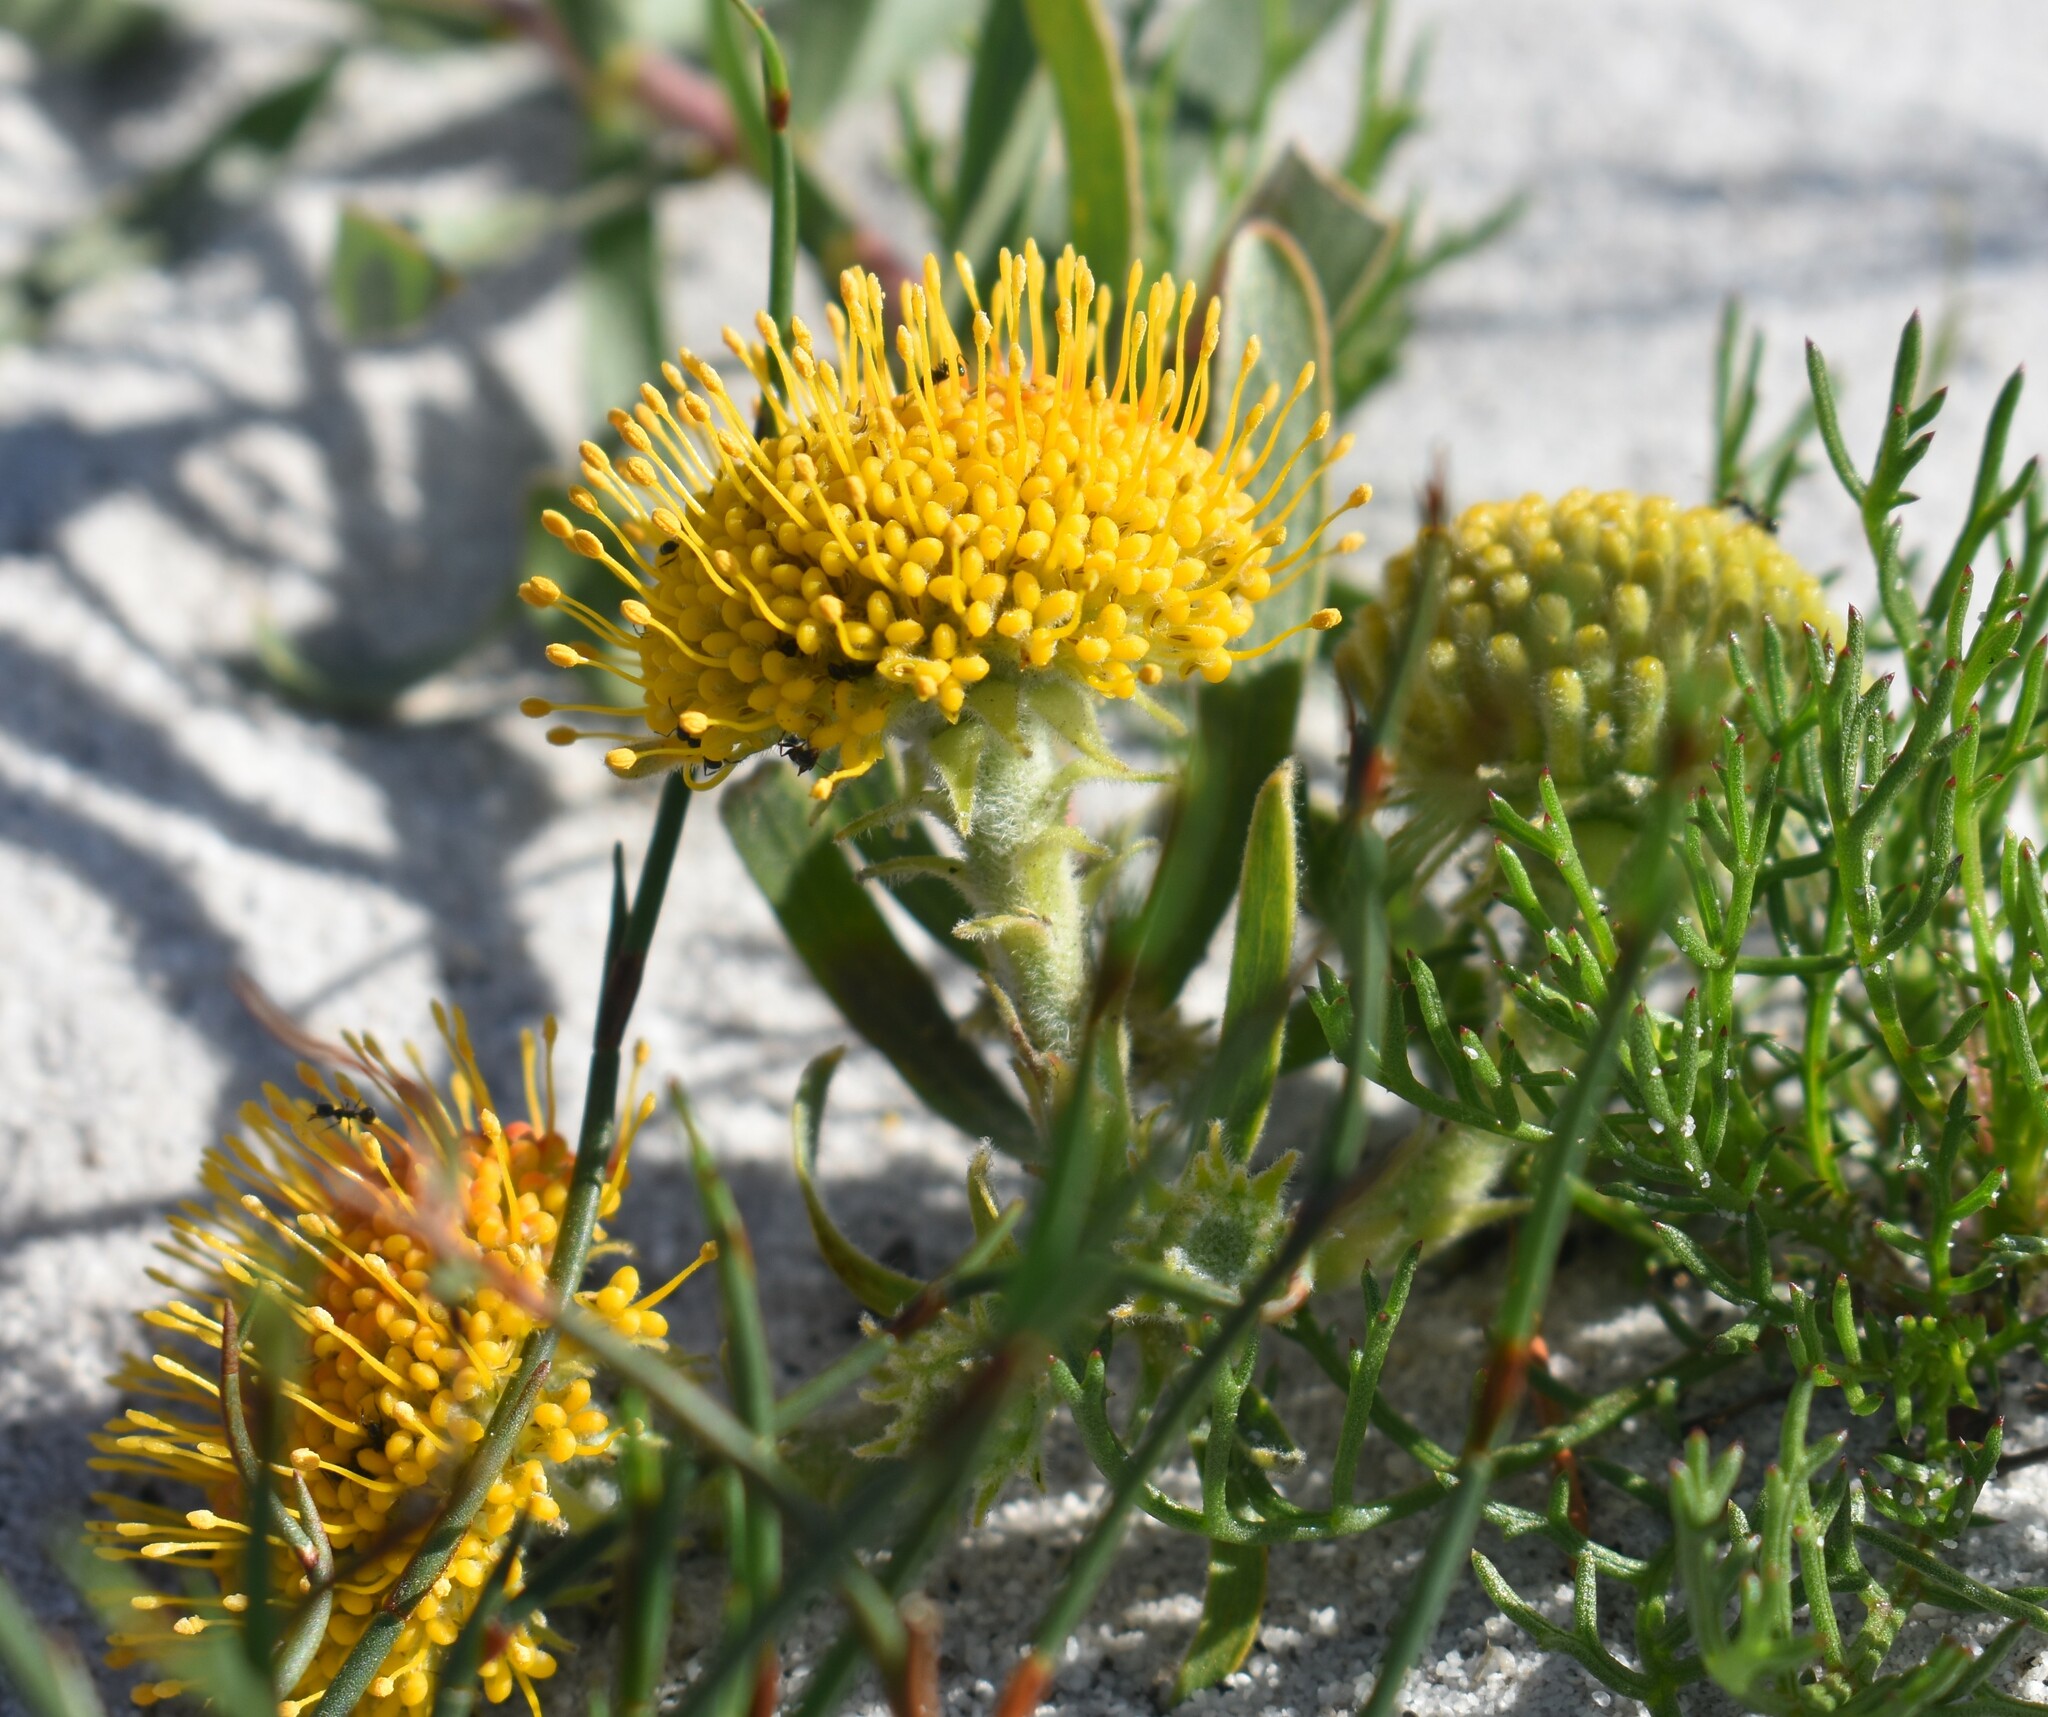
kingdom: Plantae
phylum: Tracheophyta
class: Magnoliopsida
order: Proteales
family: Proteaceae
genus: Leucospermum
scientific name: Leucospermum prostratum
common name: Yellow-trailing pincushion
